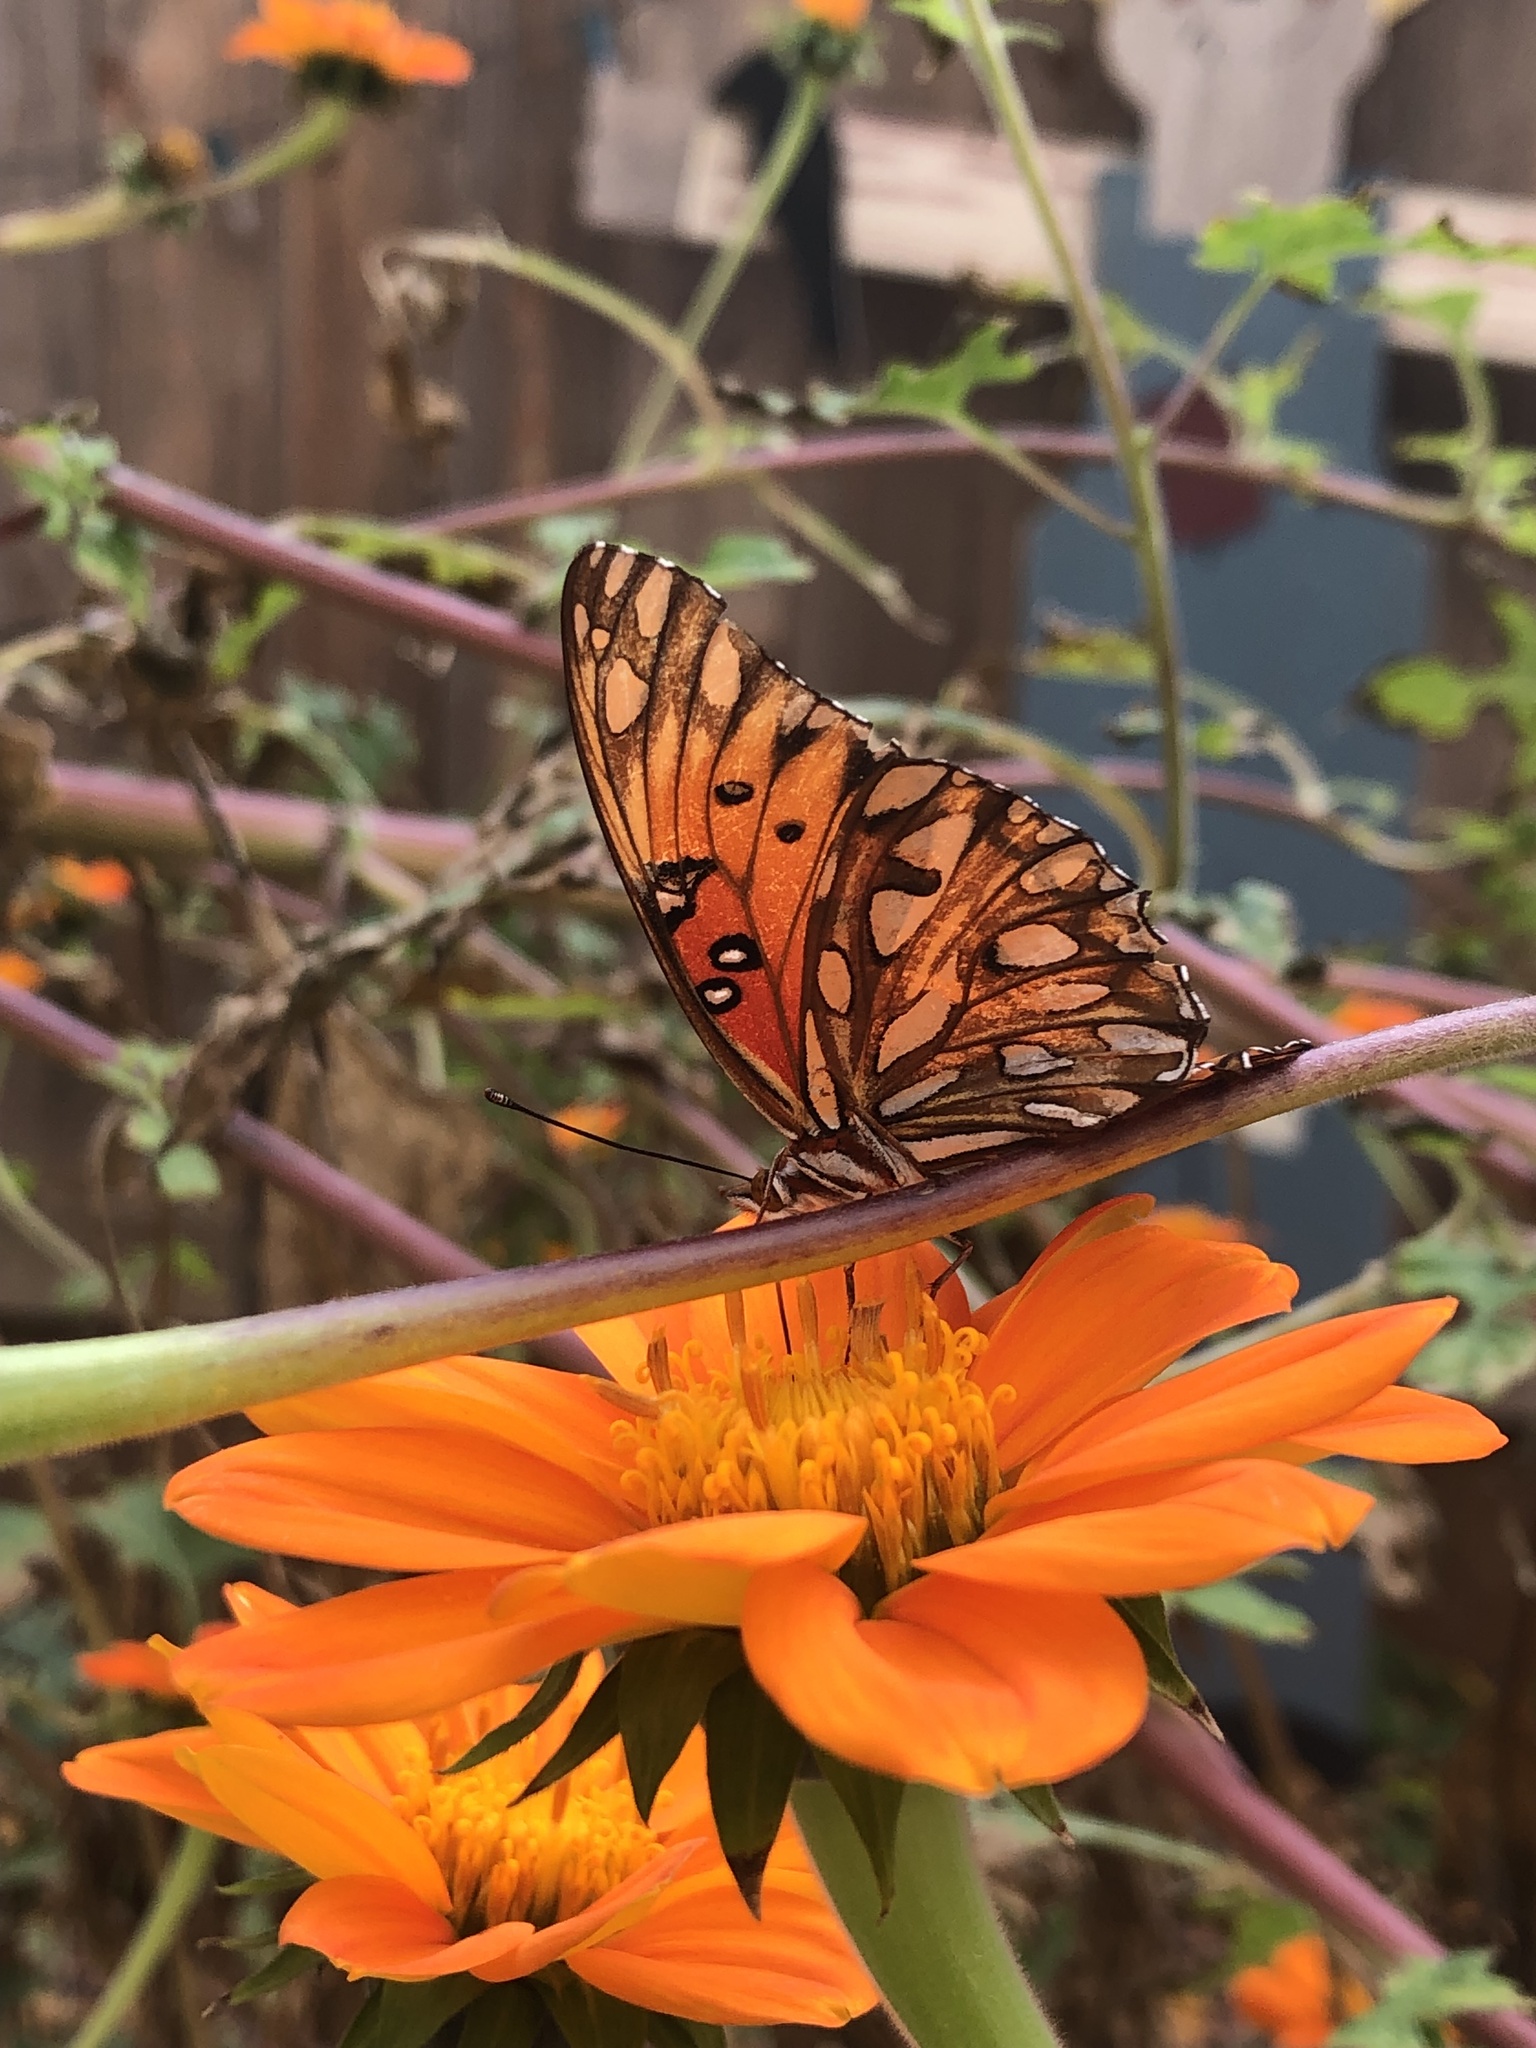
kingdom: Animalia
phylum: Arthropoda
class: Insecta
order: Lepidoptera
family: Nymphalidae
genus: Dione
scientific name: Dione vanillae
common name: Gulf fritillary
